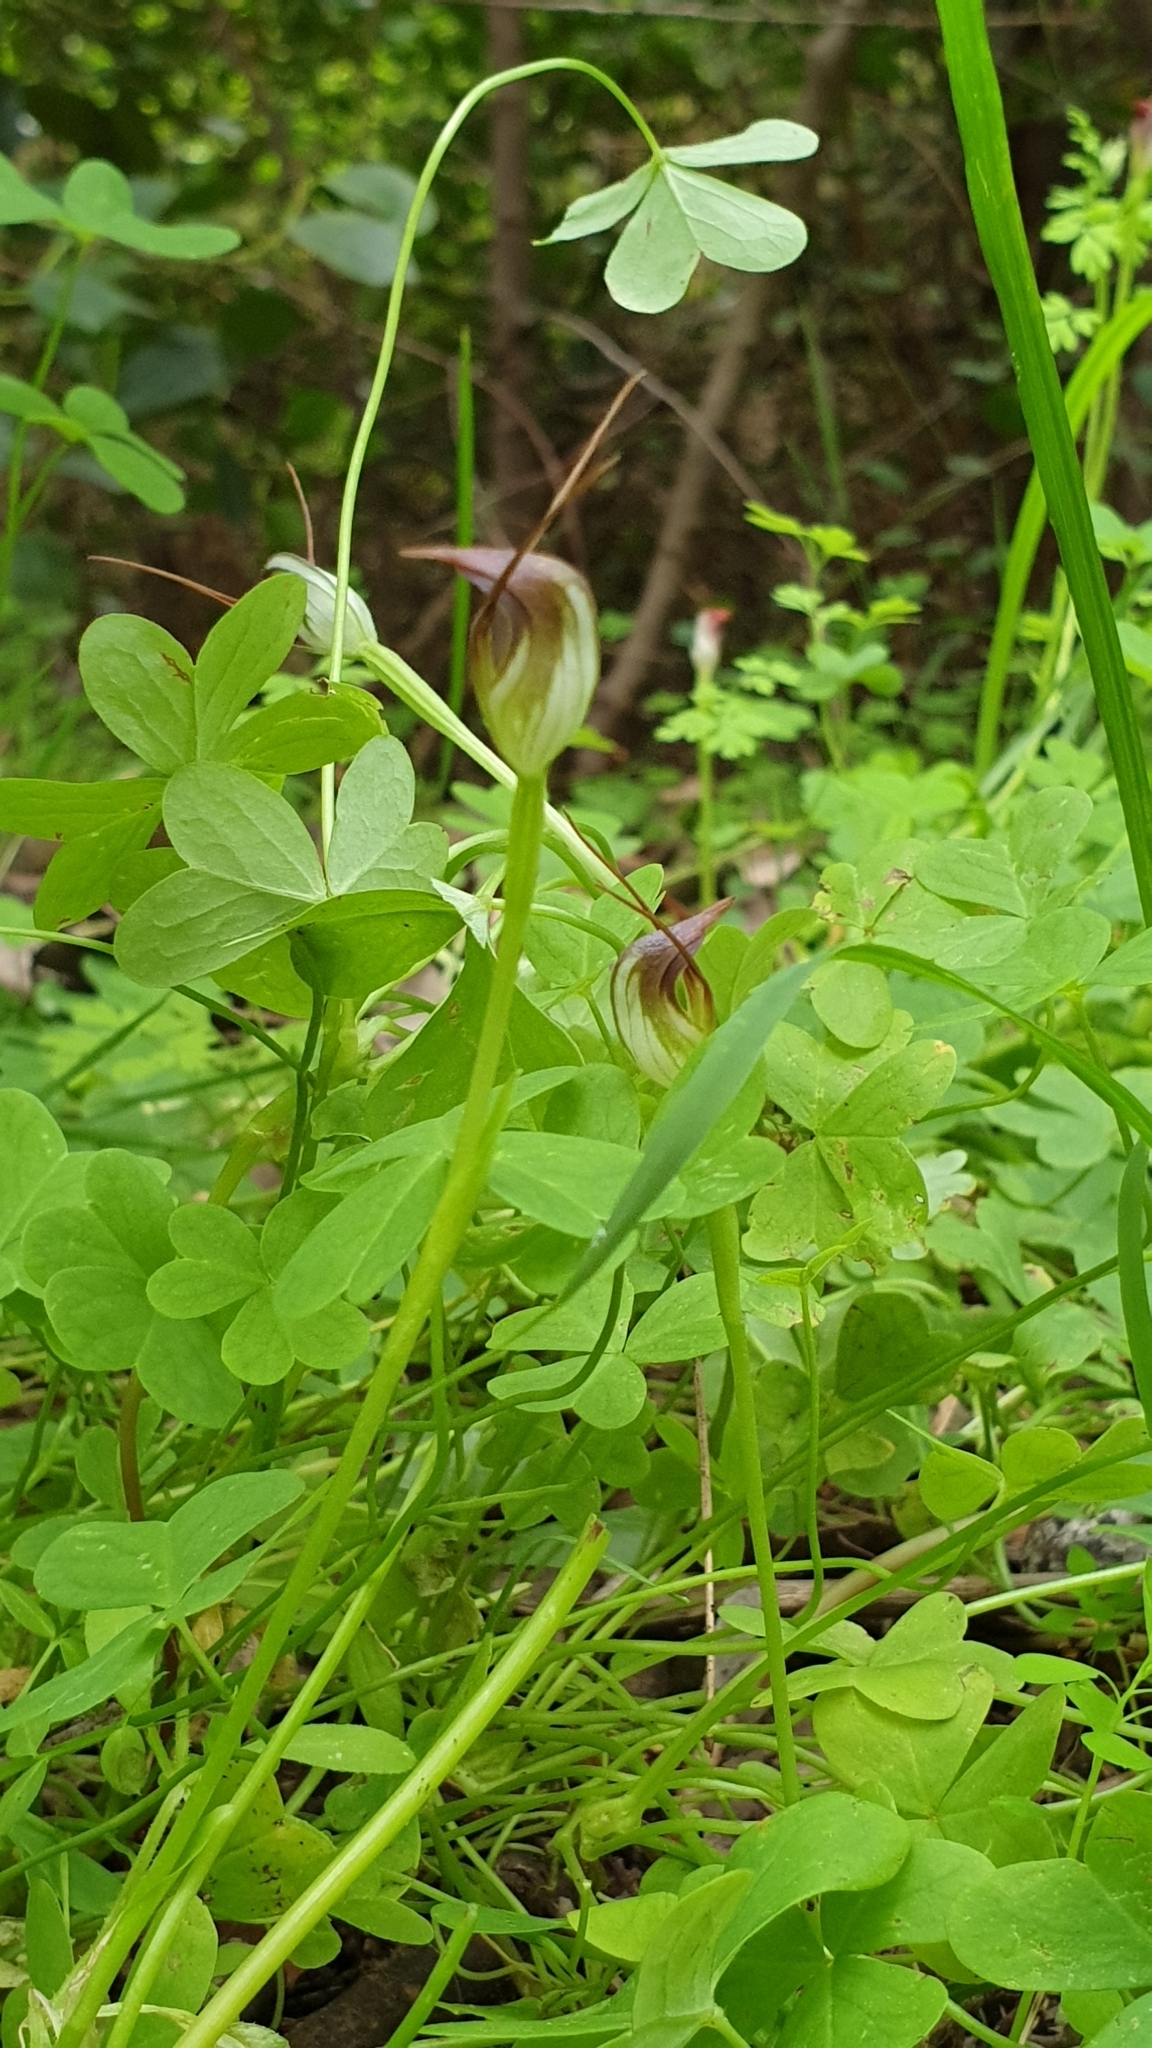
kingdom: Plantae
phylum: Tracheophyta
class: Liliopsida
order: Asparagales
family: Orchidaceae
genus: Pterostylis
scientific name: Pterostylis pedunculata
